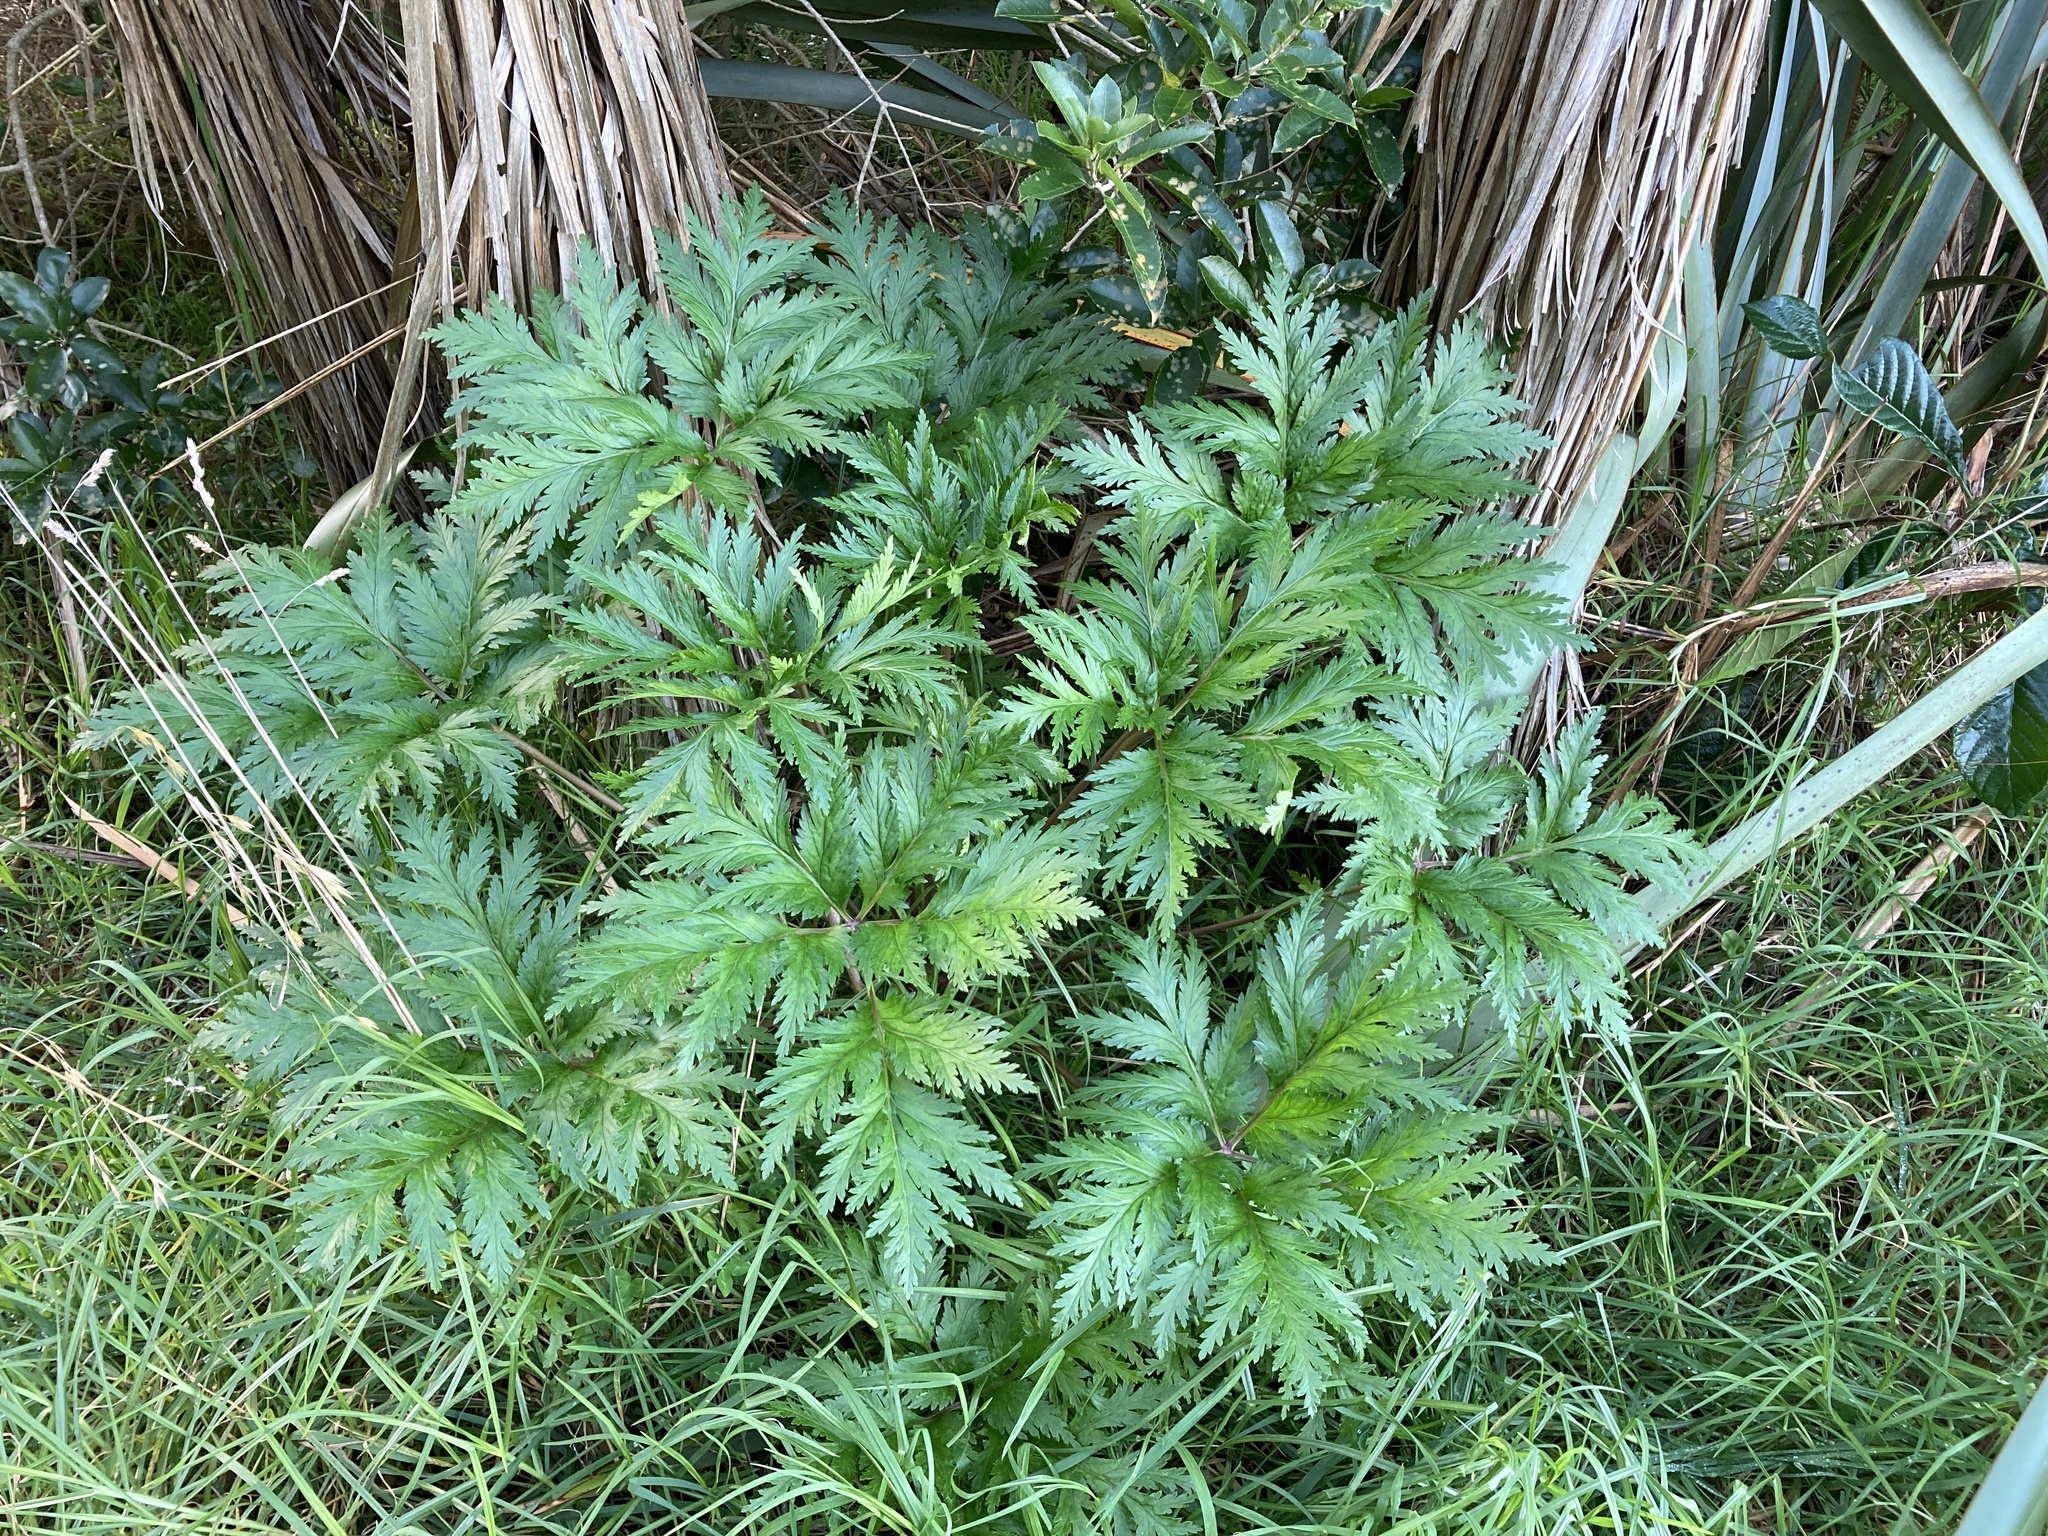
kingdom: Plantae
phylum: Tracheophyta
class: Magnoliopsida
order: Geraniales
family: Geraniaceae
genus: Geranium
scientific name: Geranium maderense
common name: Giant herb-robert
